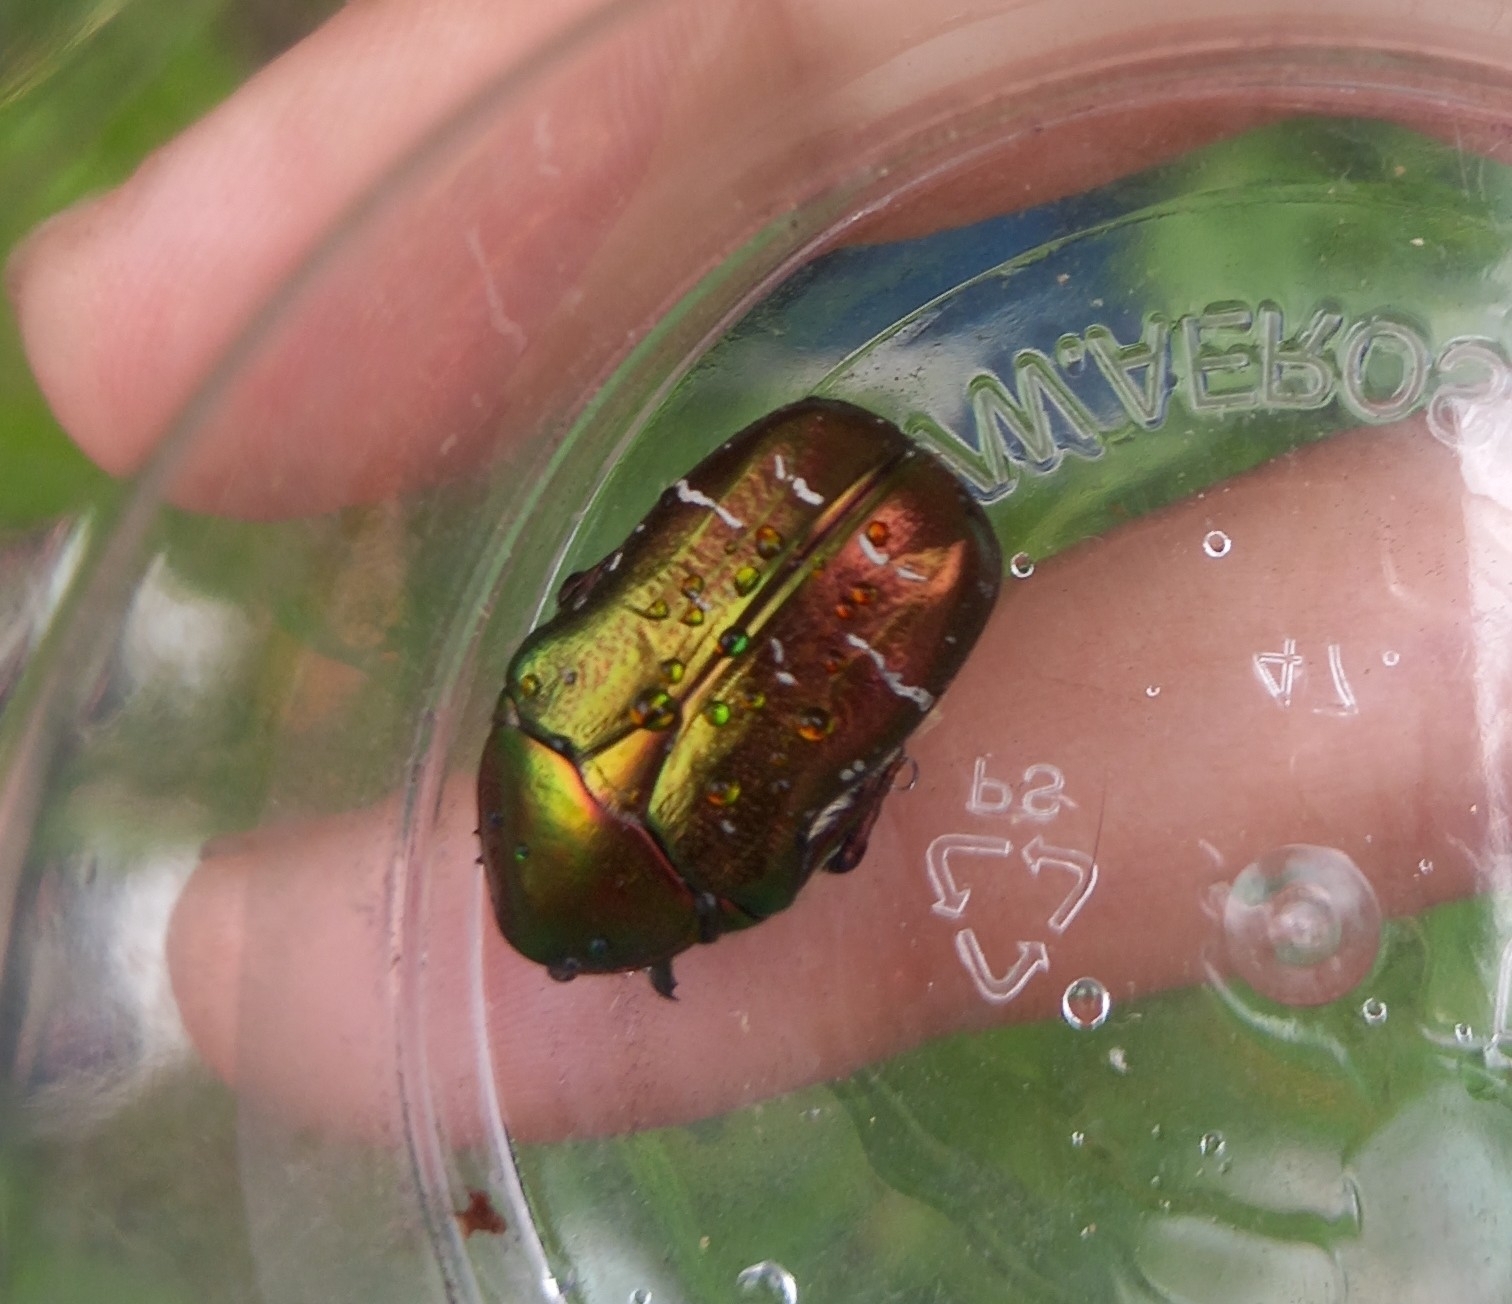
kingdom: Animalia
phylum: Arthropoda
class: Insecta
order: Coleoptera
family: Scarabaeidae
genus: Cetonia
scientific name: Cetonia aurata
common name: Rose chafer
